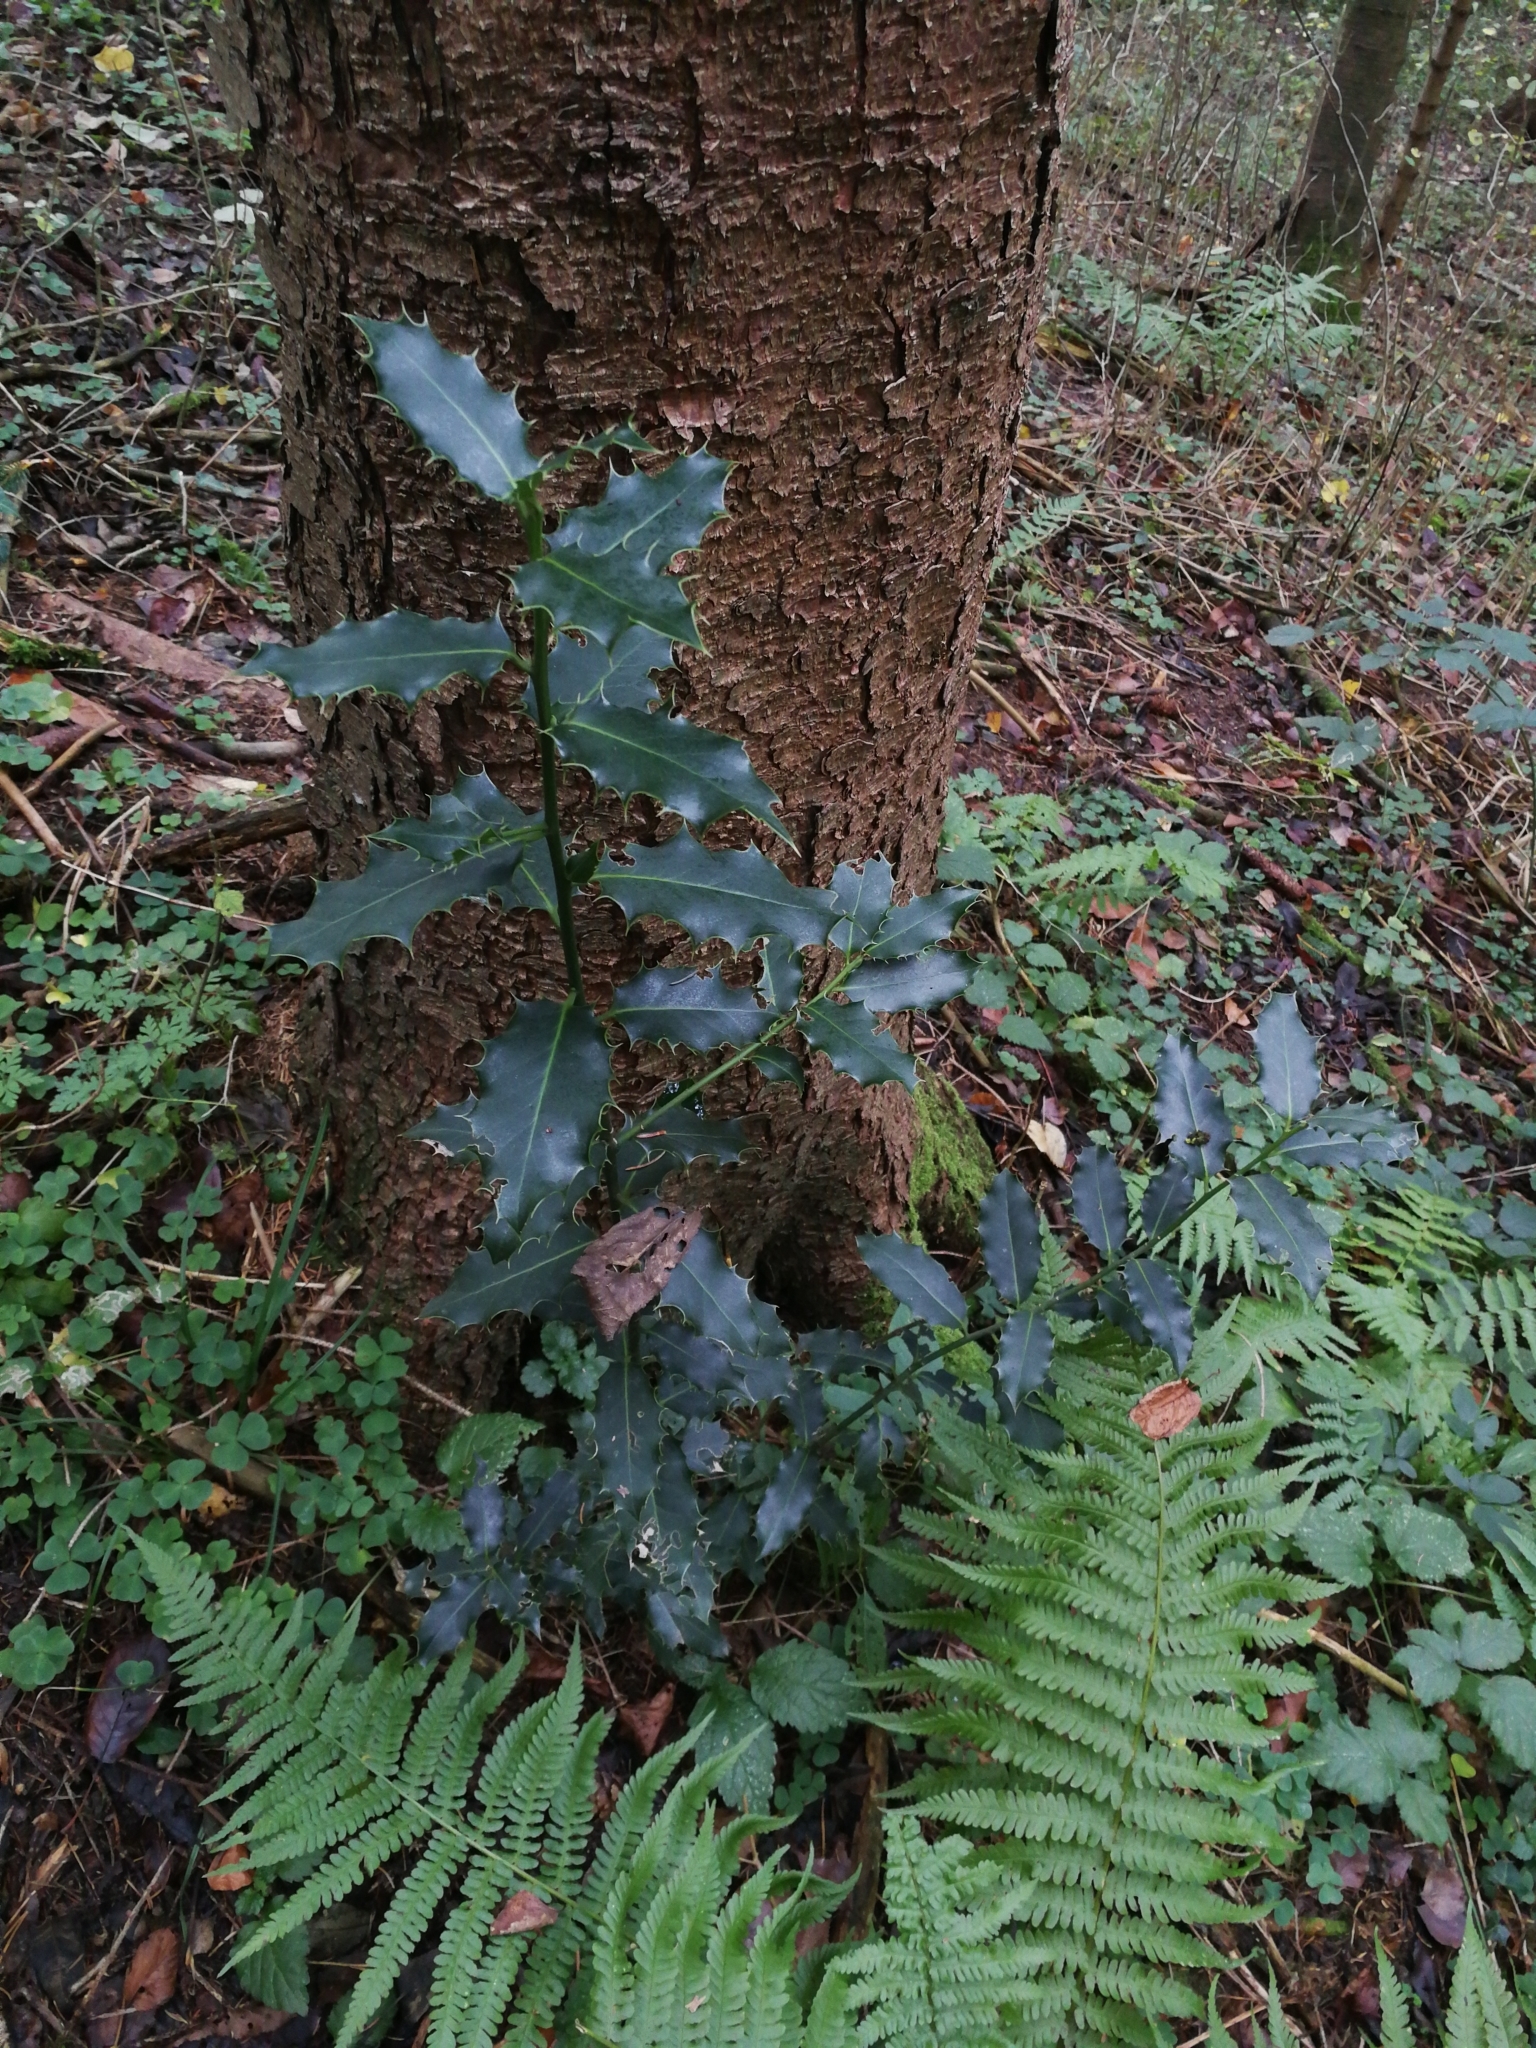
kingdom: Plantae
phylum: Tracheophyta
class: Magnoliopsida
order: Aquifoliales
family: Aquifoliaceae
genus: Ilex
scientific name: Ilex aquifolium
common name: English holly
